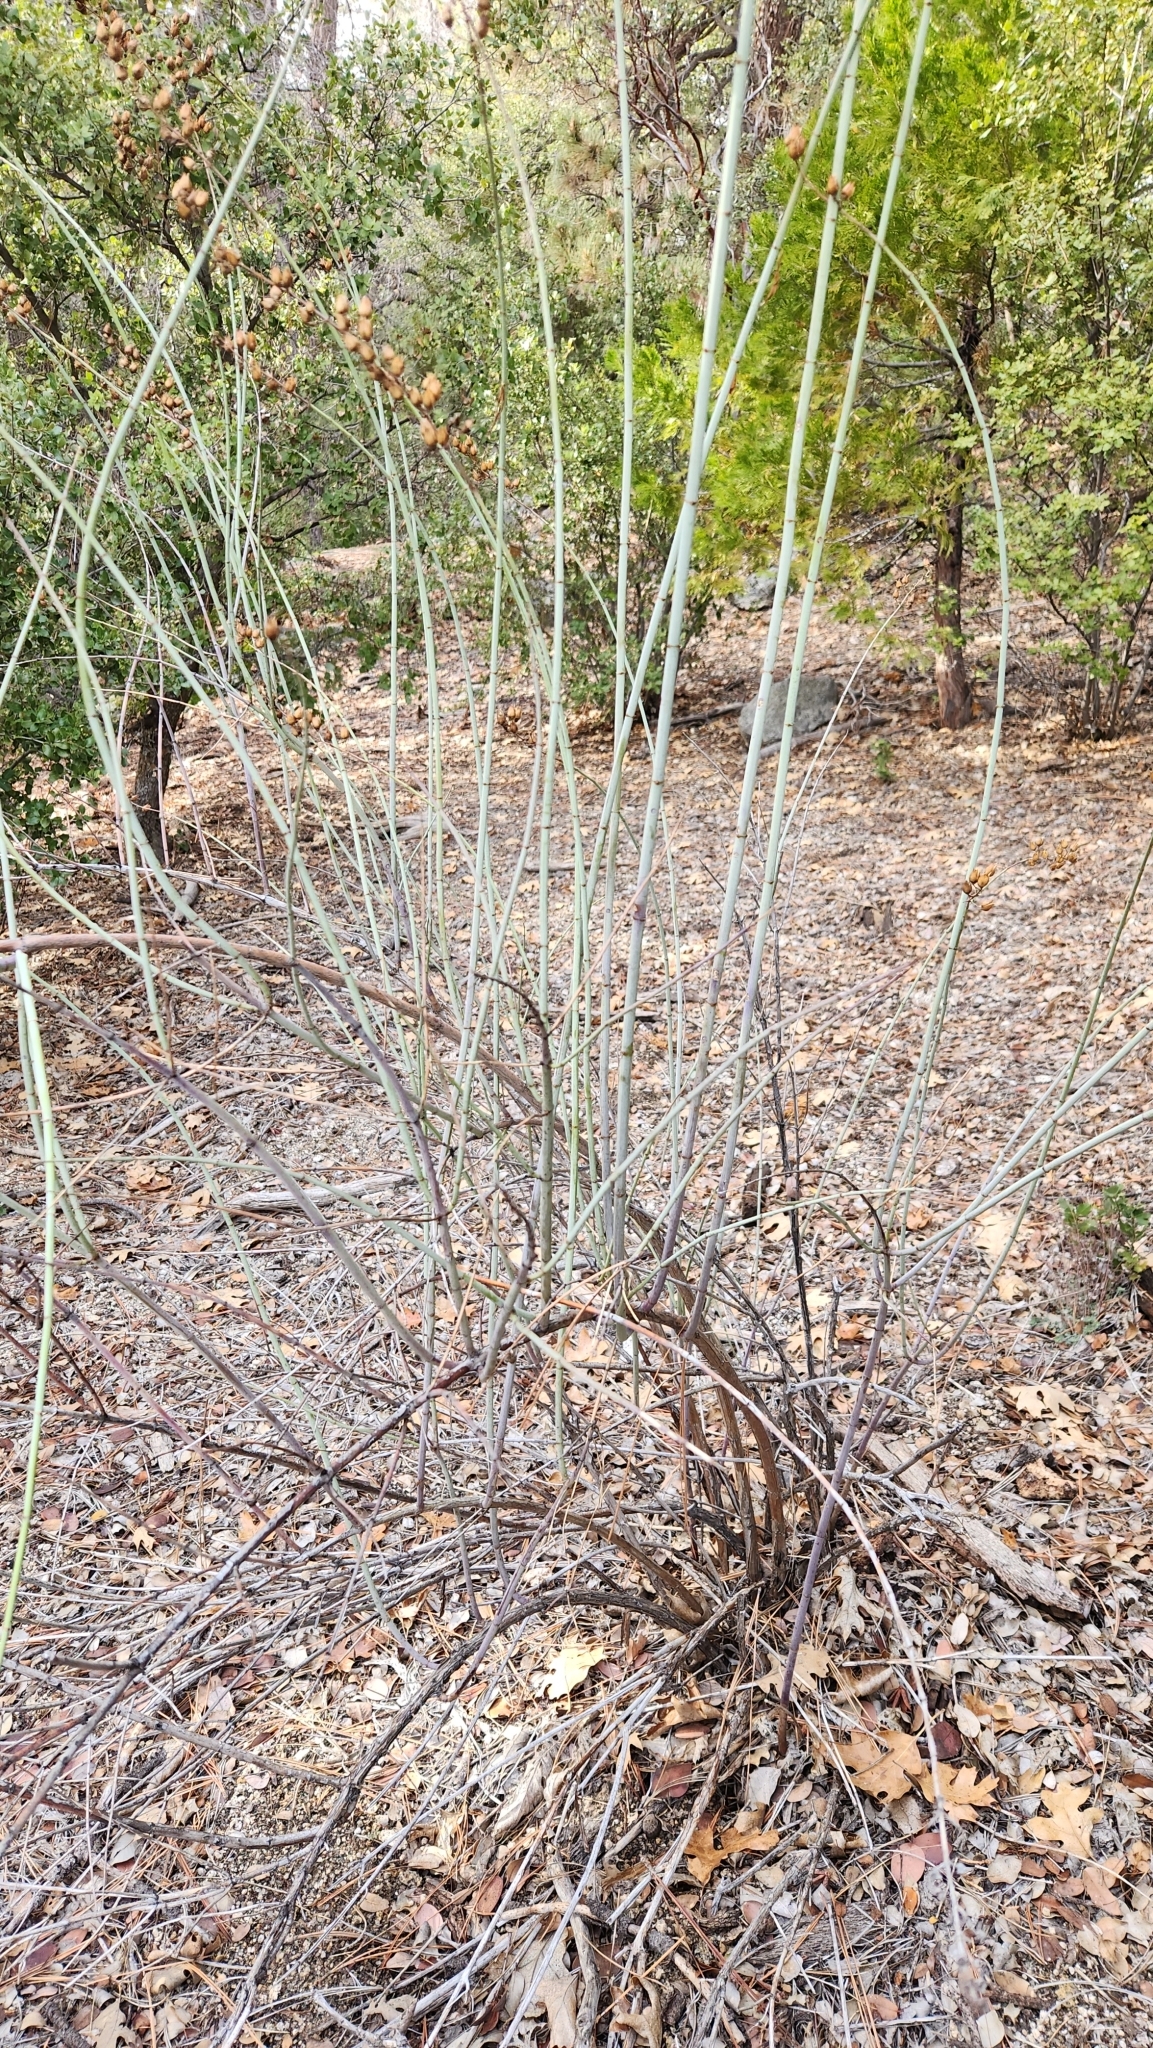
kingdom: Plantae
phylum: Tracheophyta
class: Magnoliopsida
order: Lamiales
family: Plantaginaceae
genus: Keckiella
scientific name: Keckiella ternata
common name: Scarlet keckiella
